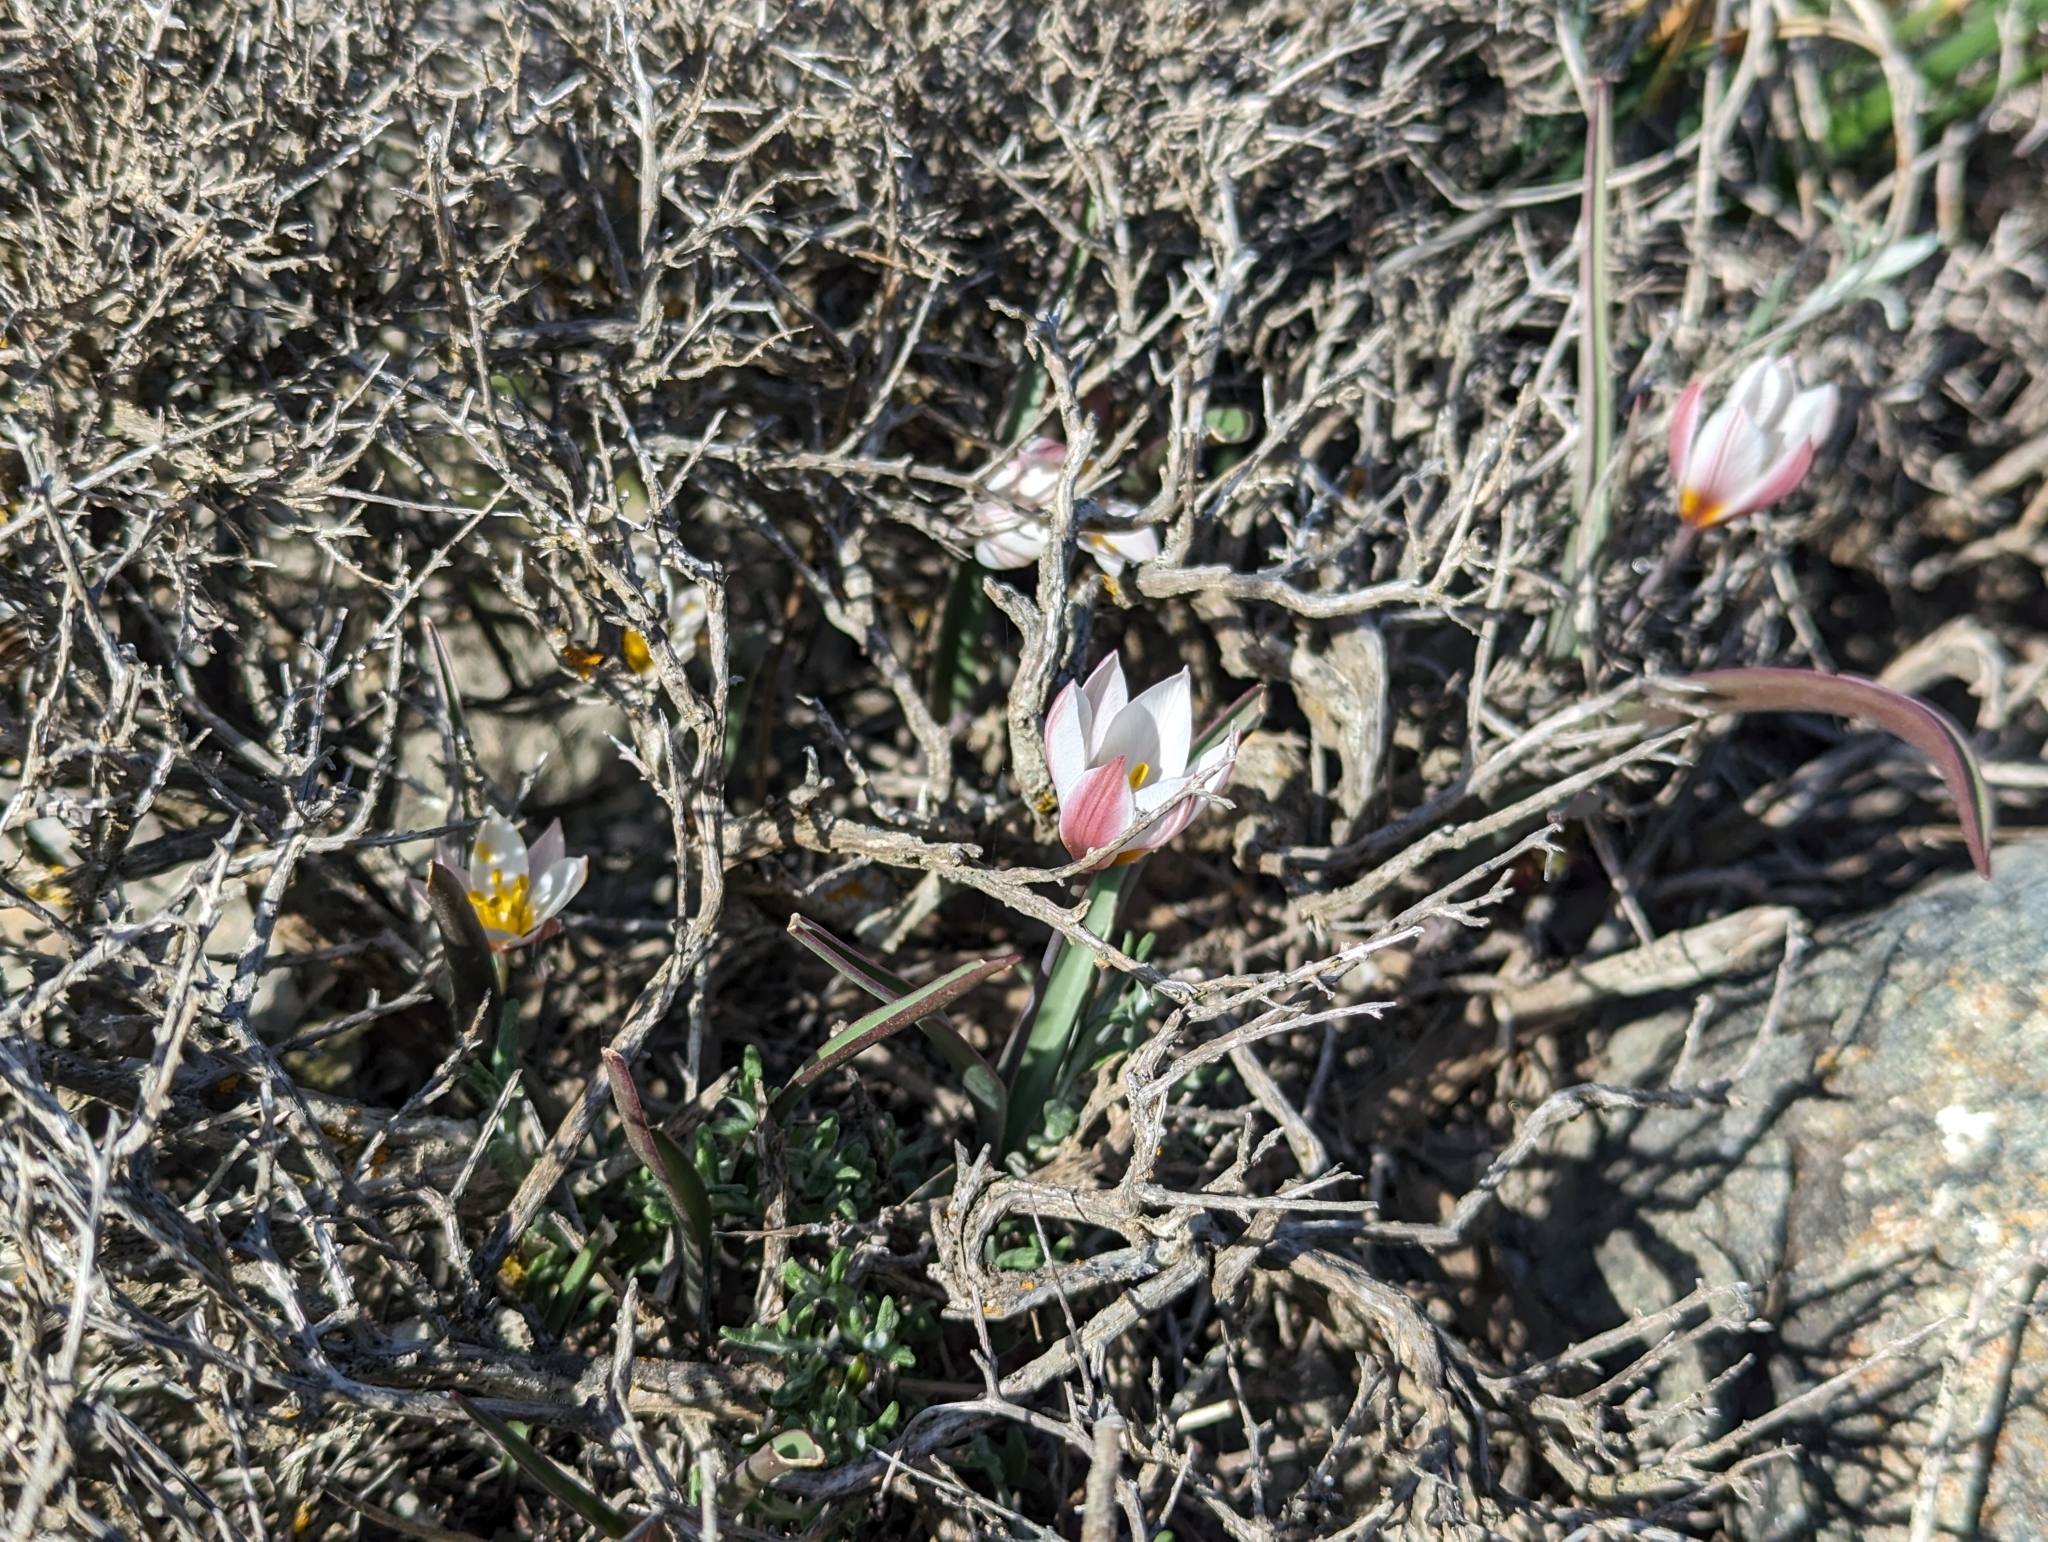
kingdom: Plantae
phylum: Tracheophyta
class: Liliopsida
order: Liliales
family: Liliaceae
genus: Tulipa
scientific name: Tulipa saxatilis
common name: Cretan tulip
